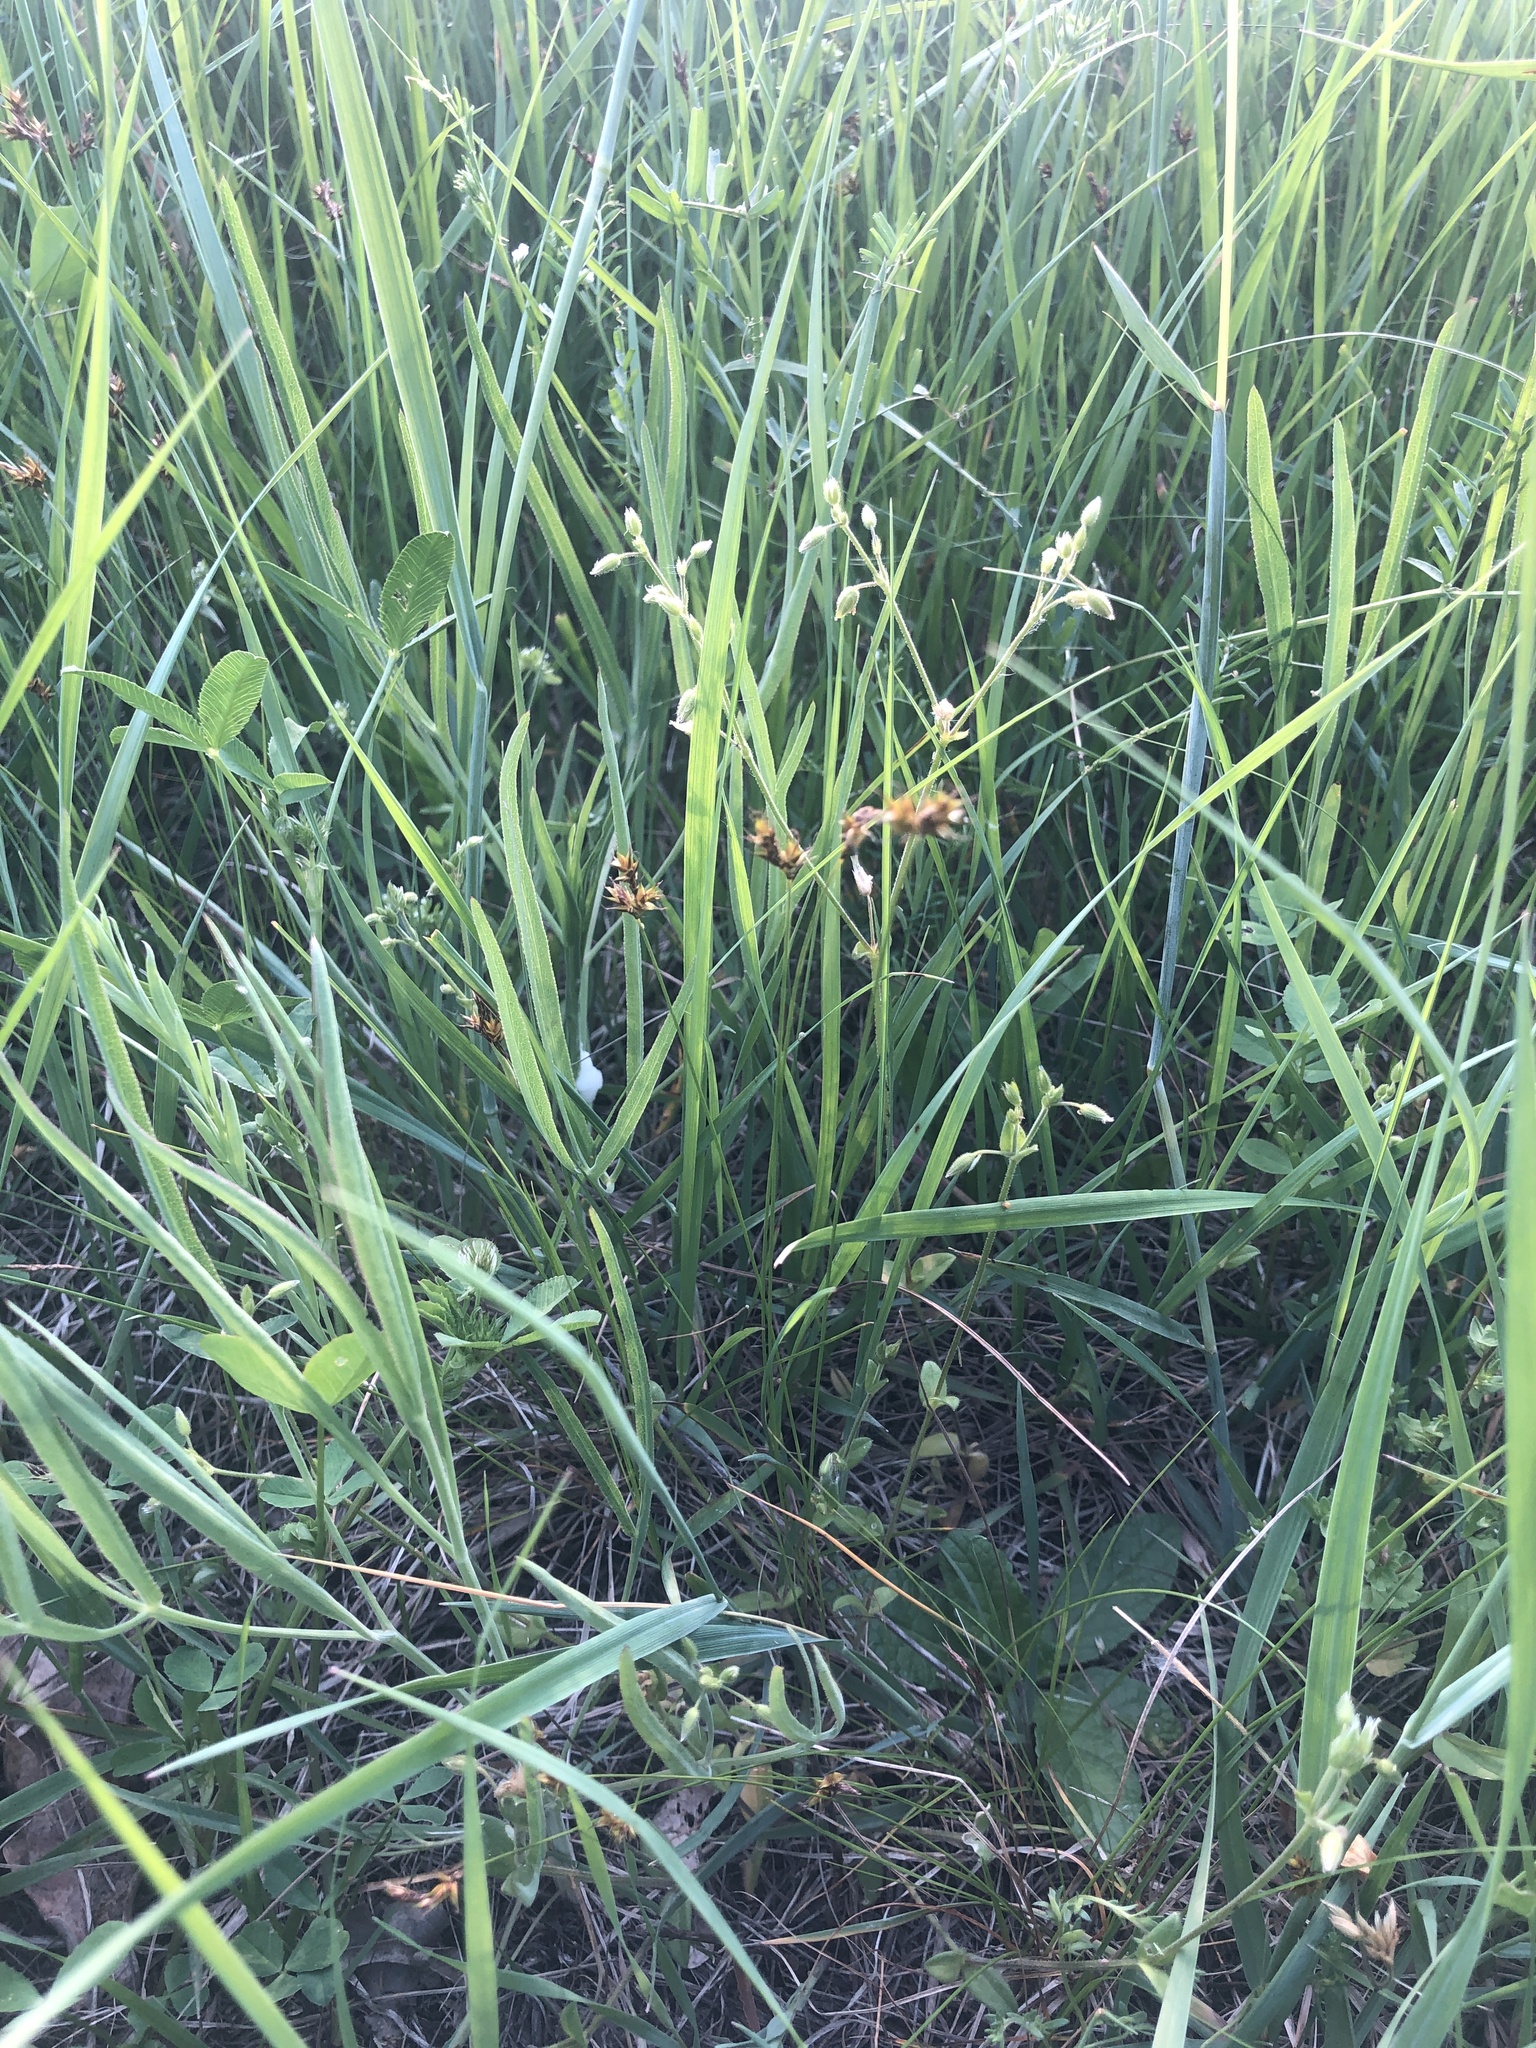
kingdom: Plantae
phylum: Tracheophyta
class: Liliopsida
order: Poales
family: Cyperaceae
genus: Carex
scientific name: Carex praecox
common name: Early sedge
